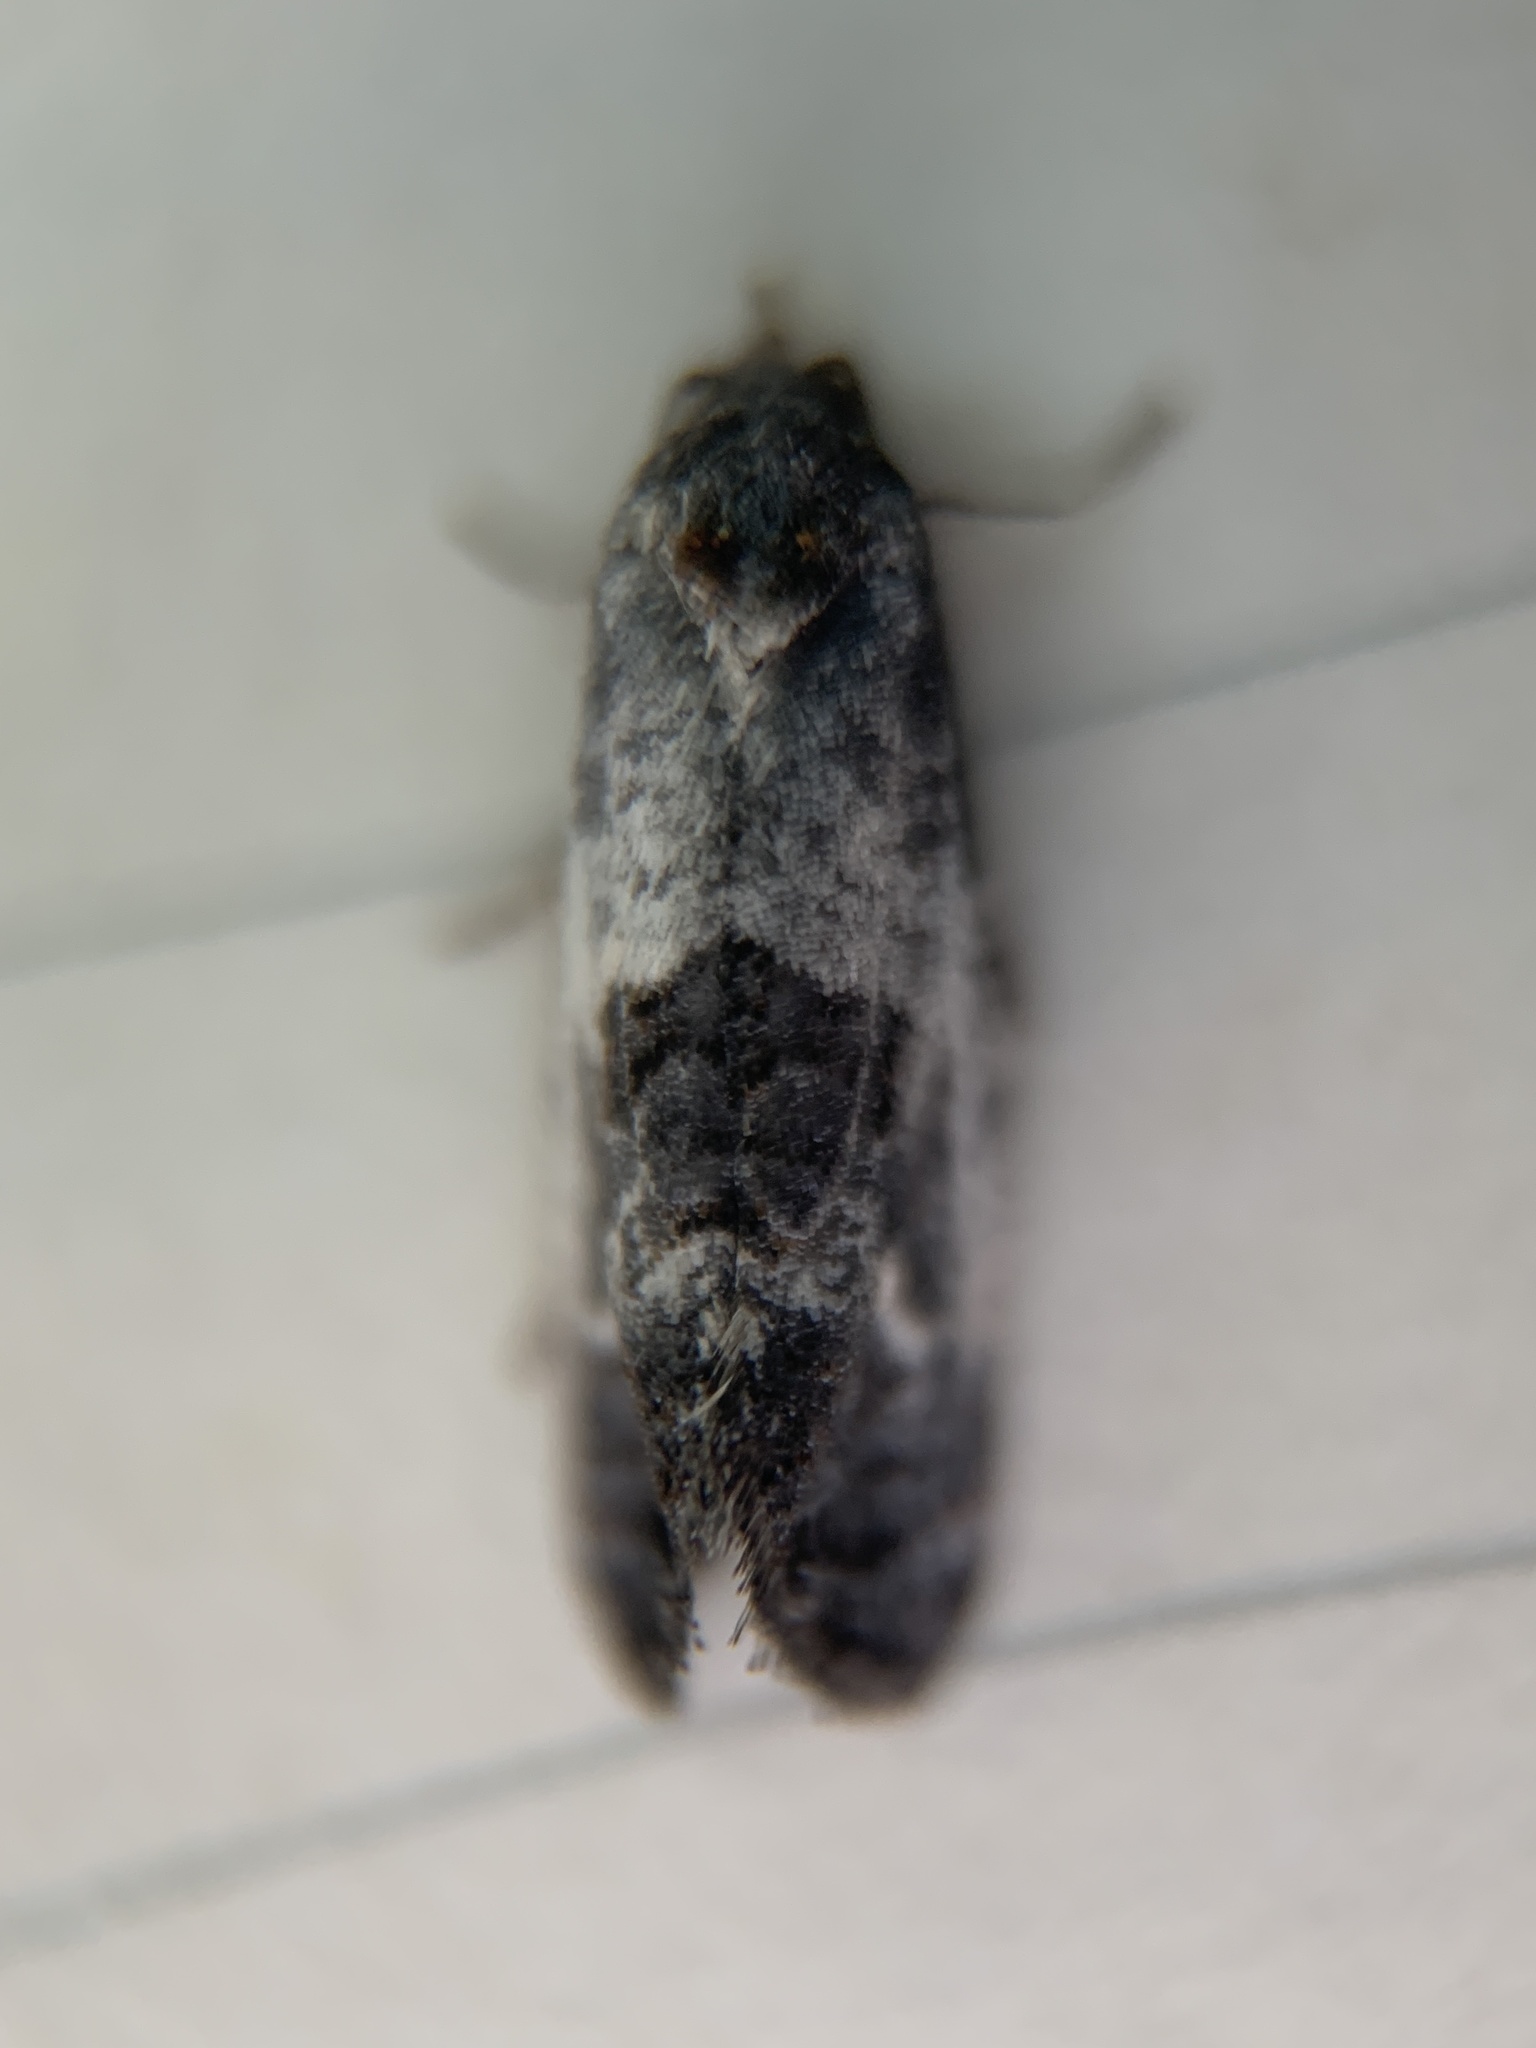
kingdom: Animalia
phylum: Arthropoda
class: Insecta
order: Lepidoptera
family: Tortricidae
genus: Rudenia
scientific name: Rudenia leguminana
